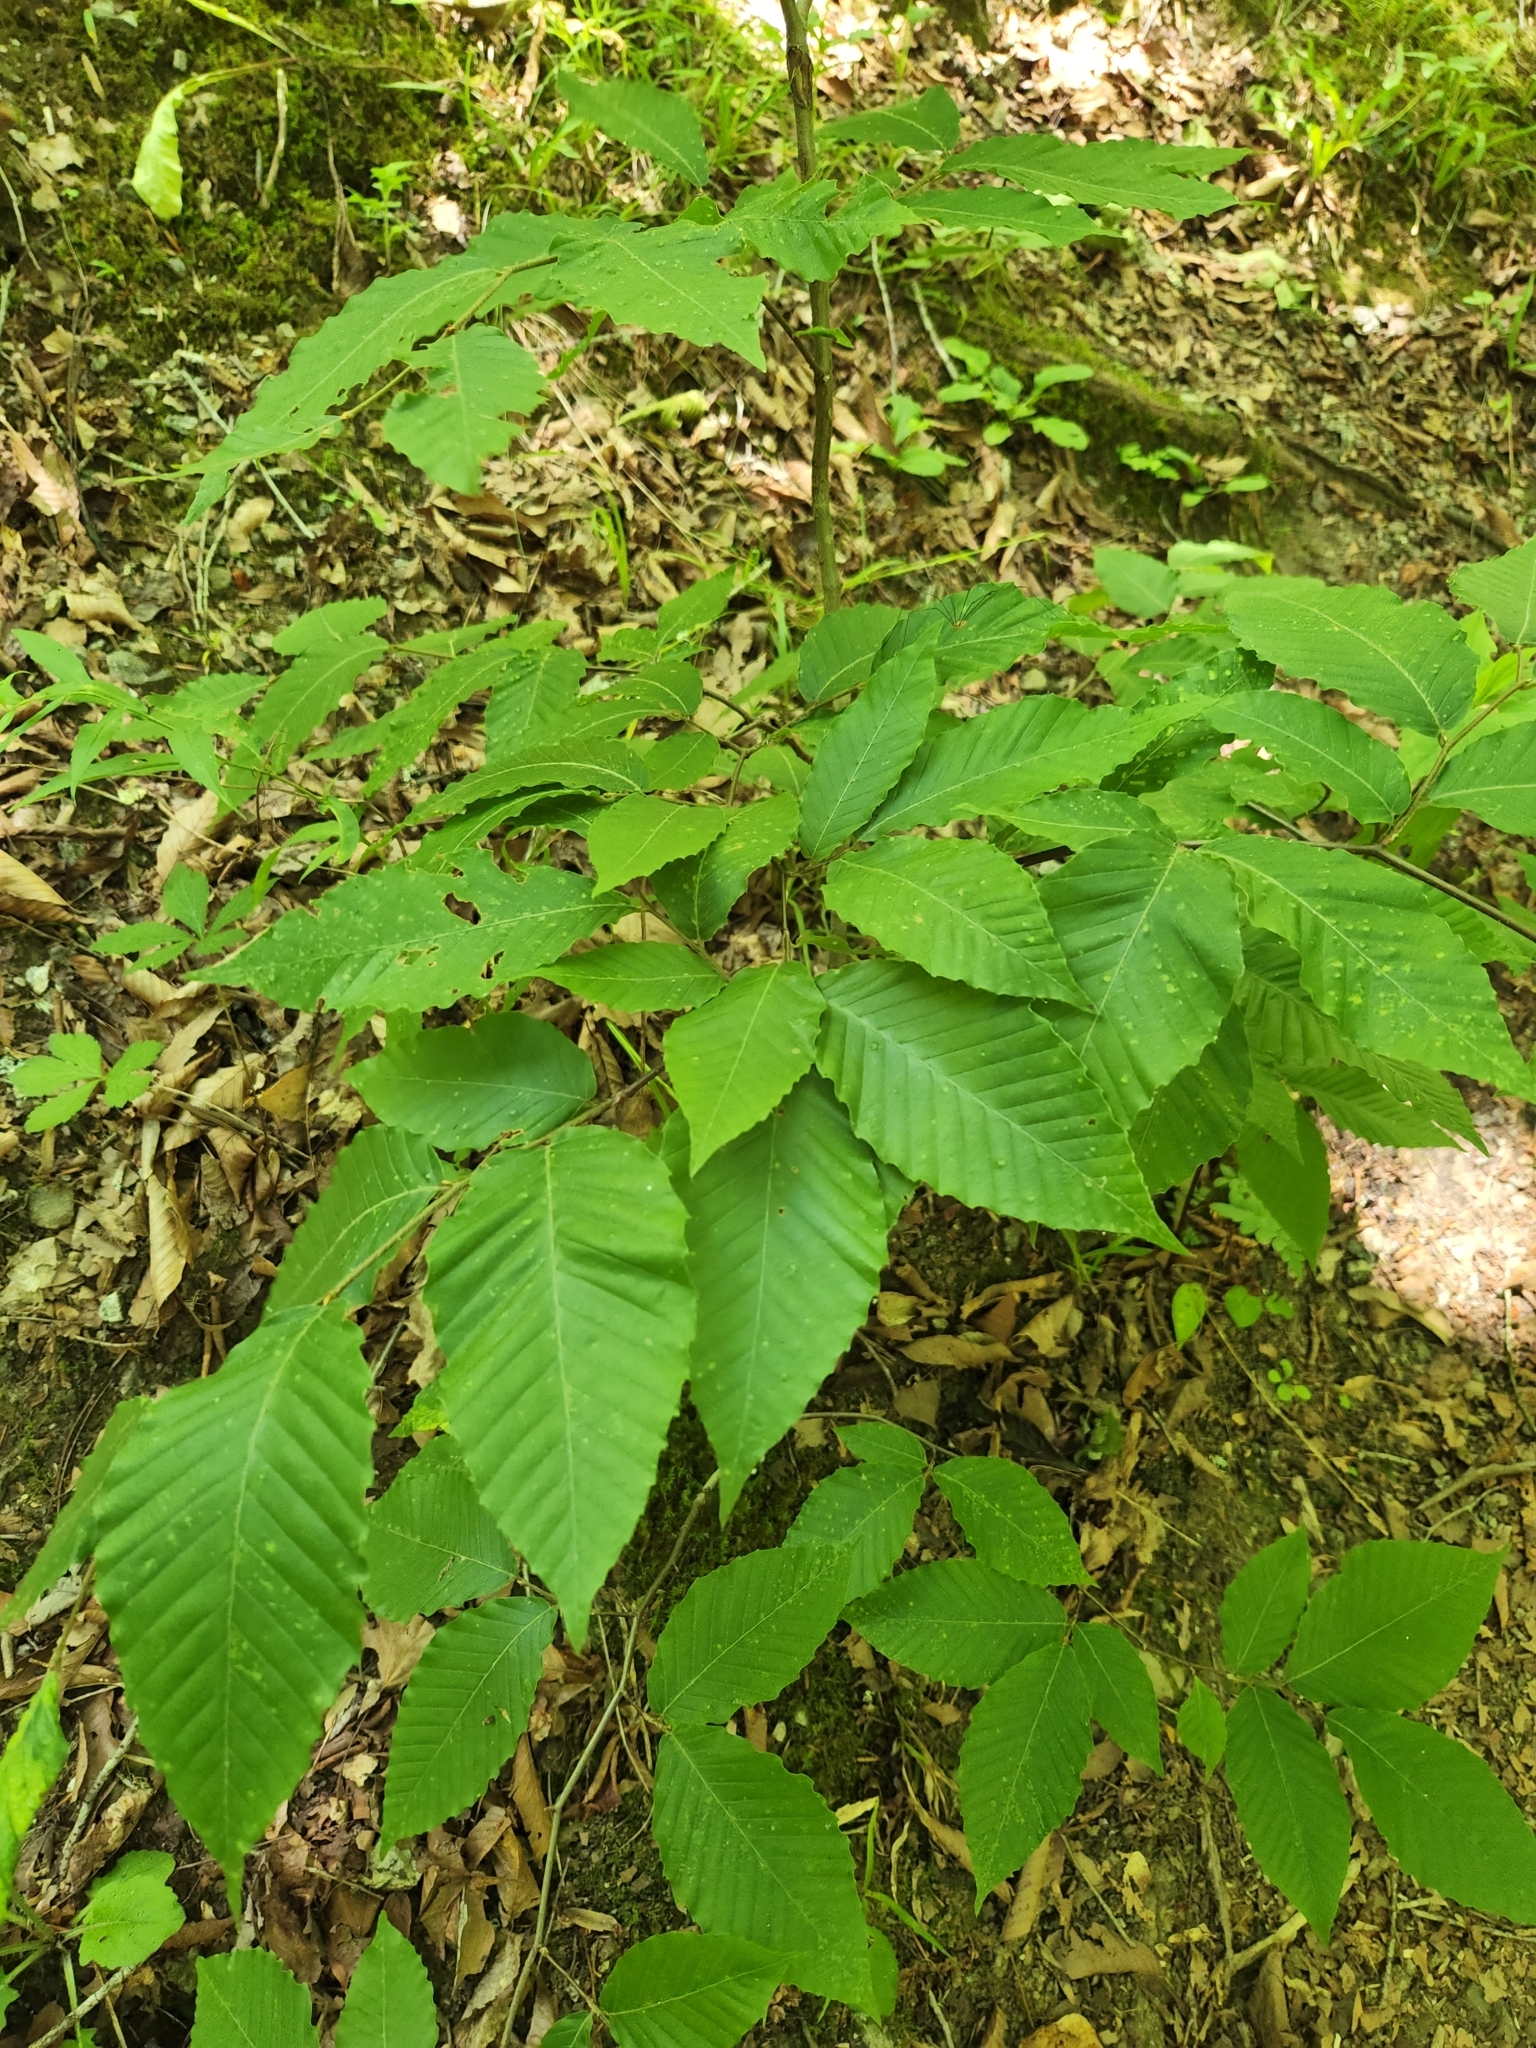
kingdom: Plantae
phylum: Tracheophyta
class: Magnoliopsida
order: Fagales
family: Fagaceae
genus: Fagus
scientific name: Fagus grandifolia
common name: American beech
